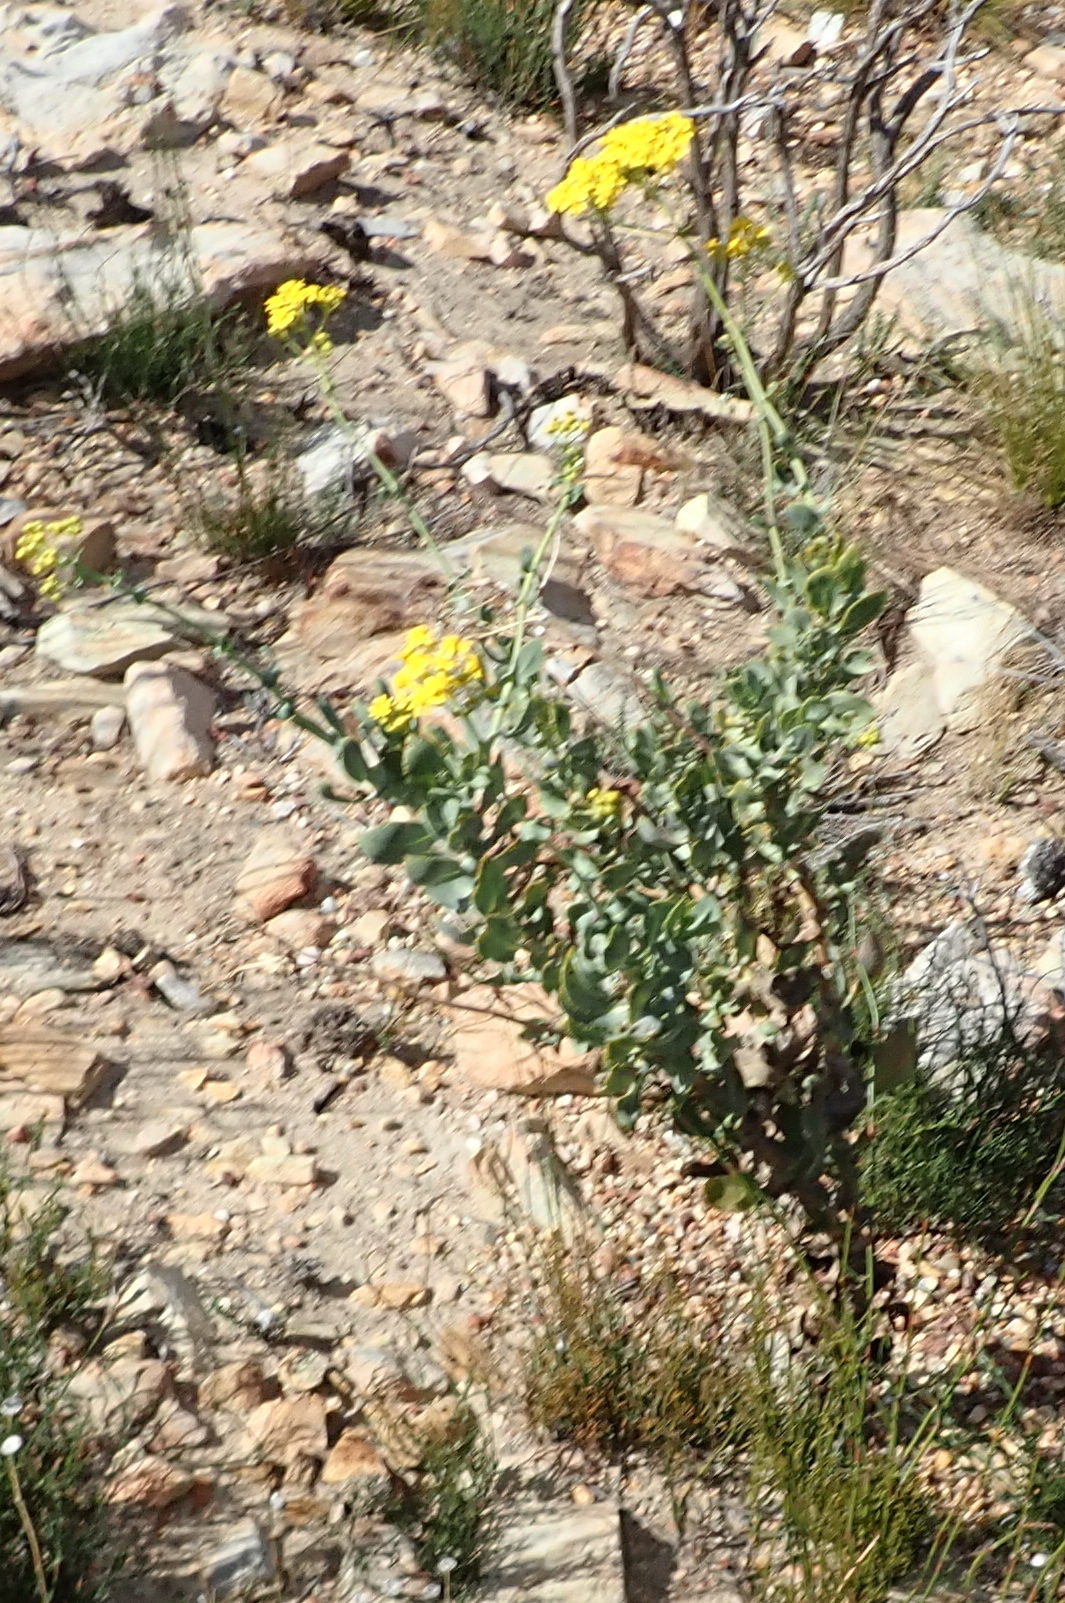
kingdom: Plantae
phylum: Tracheophyta
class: Magnoliopsida
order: Asterales
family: Asteraceae
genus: Othonna
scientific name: Othonna parviflora
